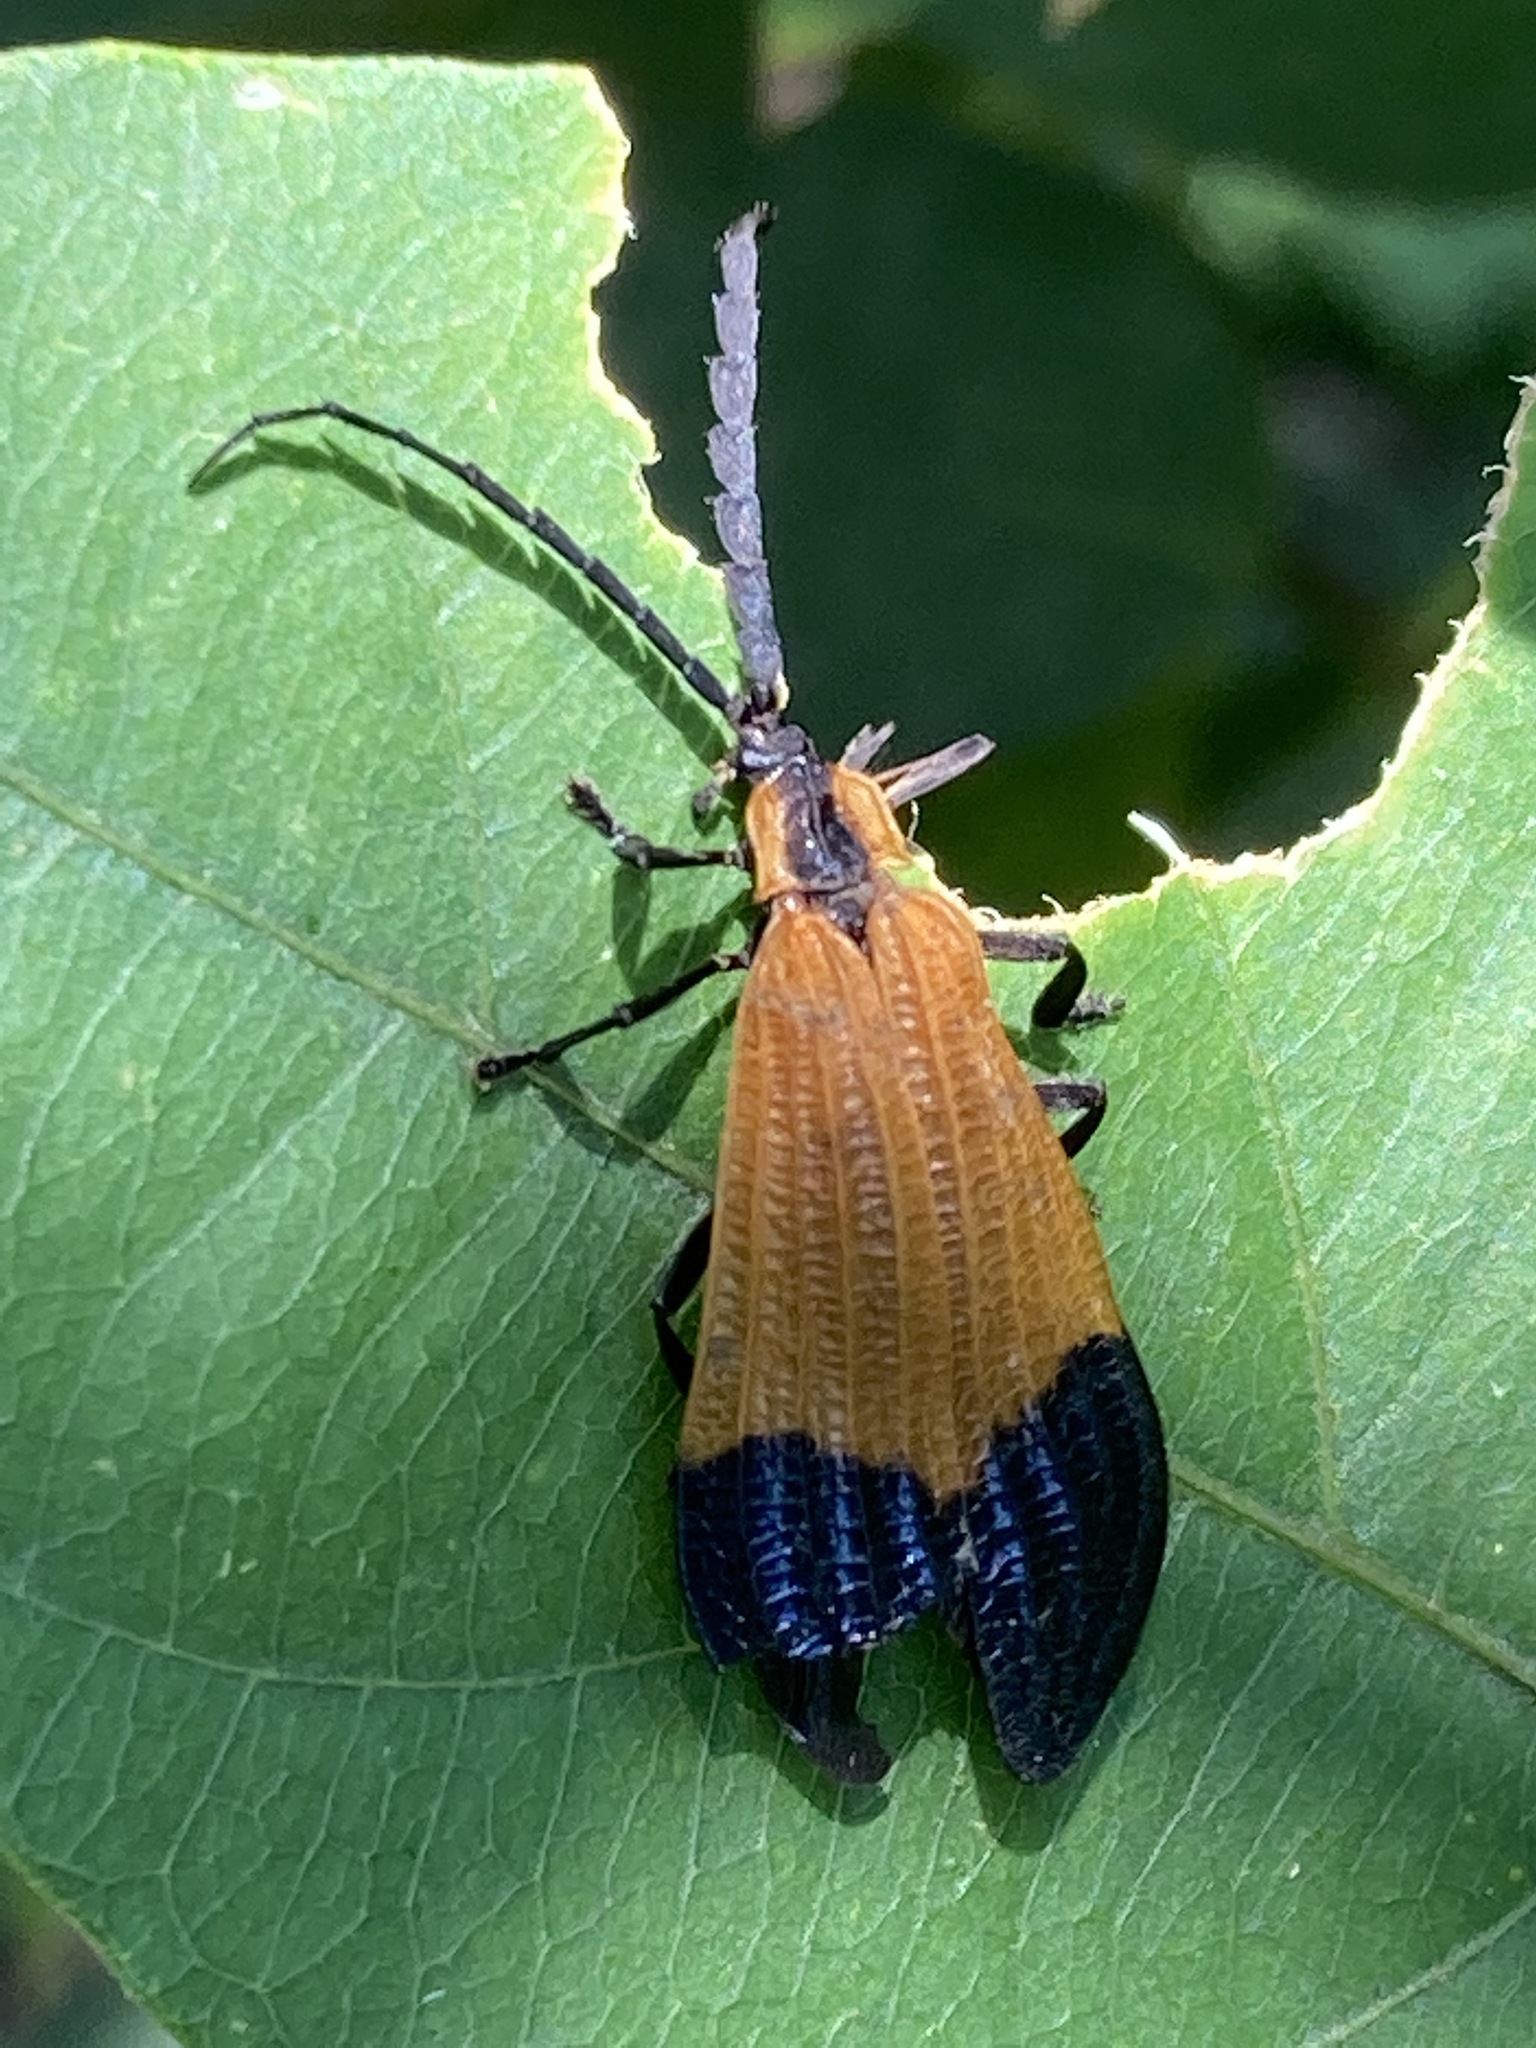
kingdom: Animalia
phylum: Arthropoda
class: Insecta
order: Coleoptera
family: Lycidae
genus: Calopteron
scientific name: Calopteron terminale
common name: End band net-winged beetle
